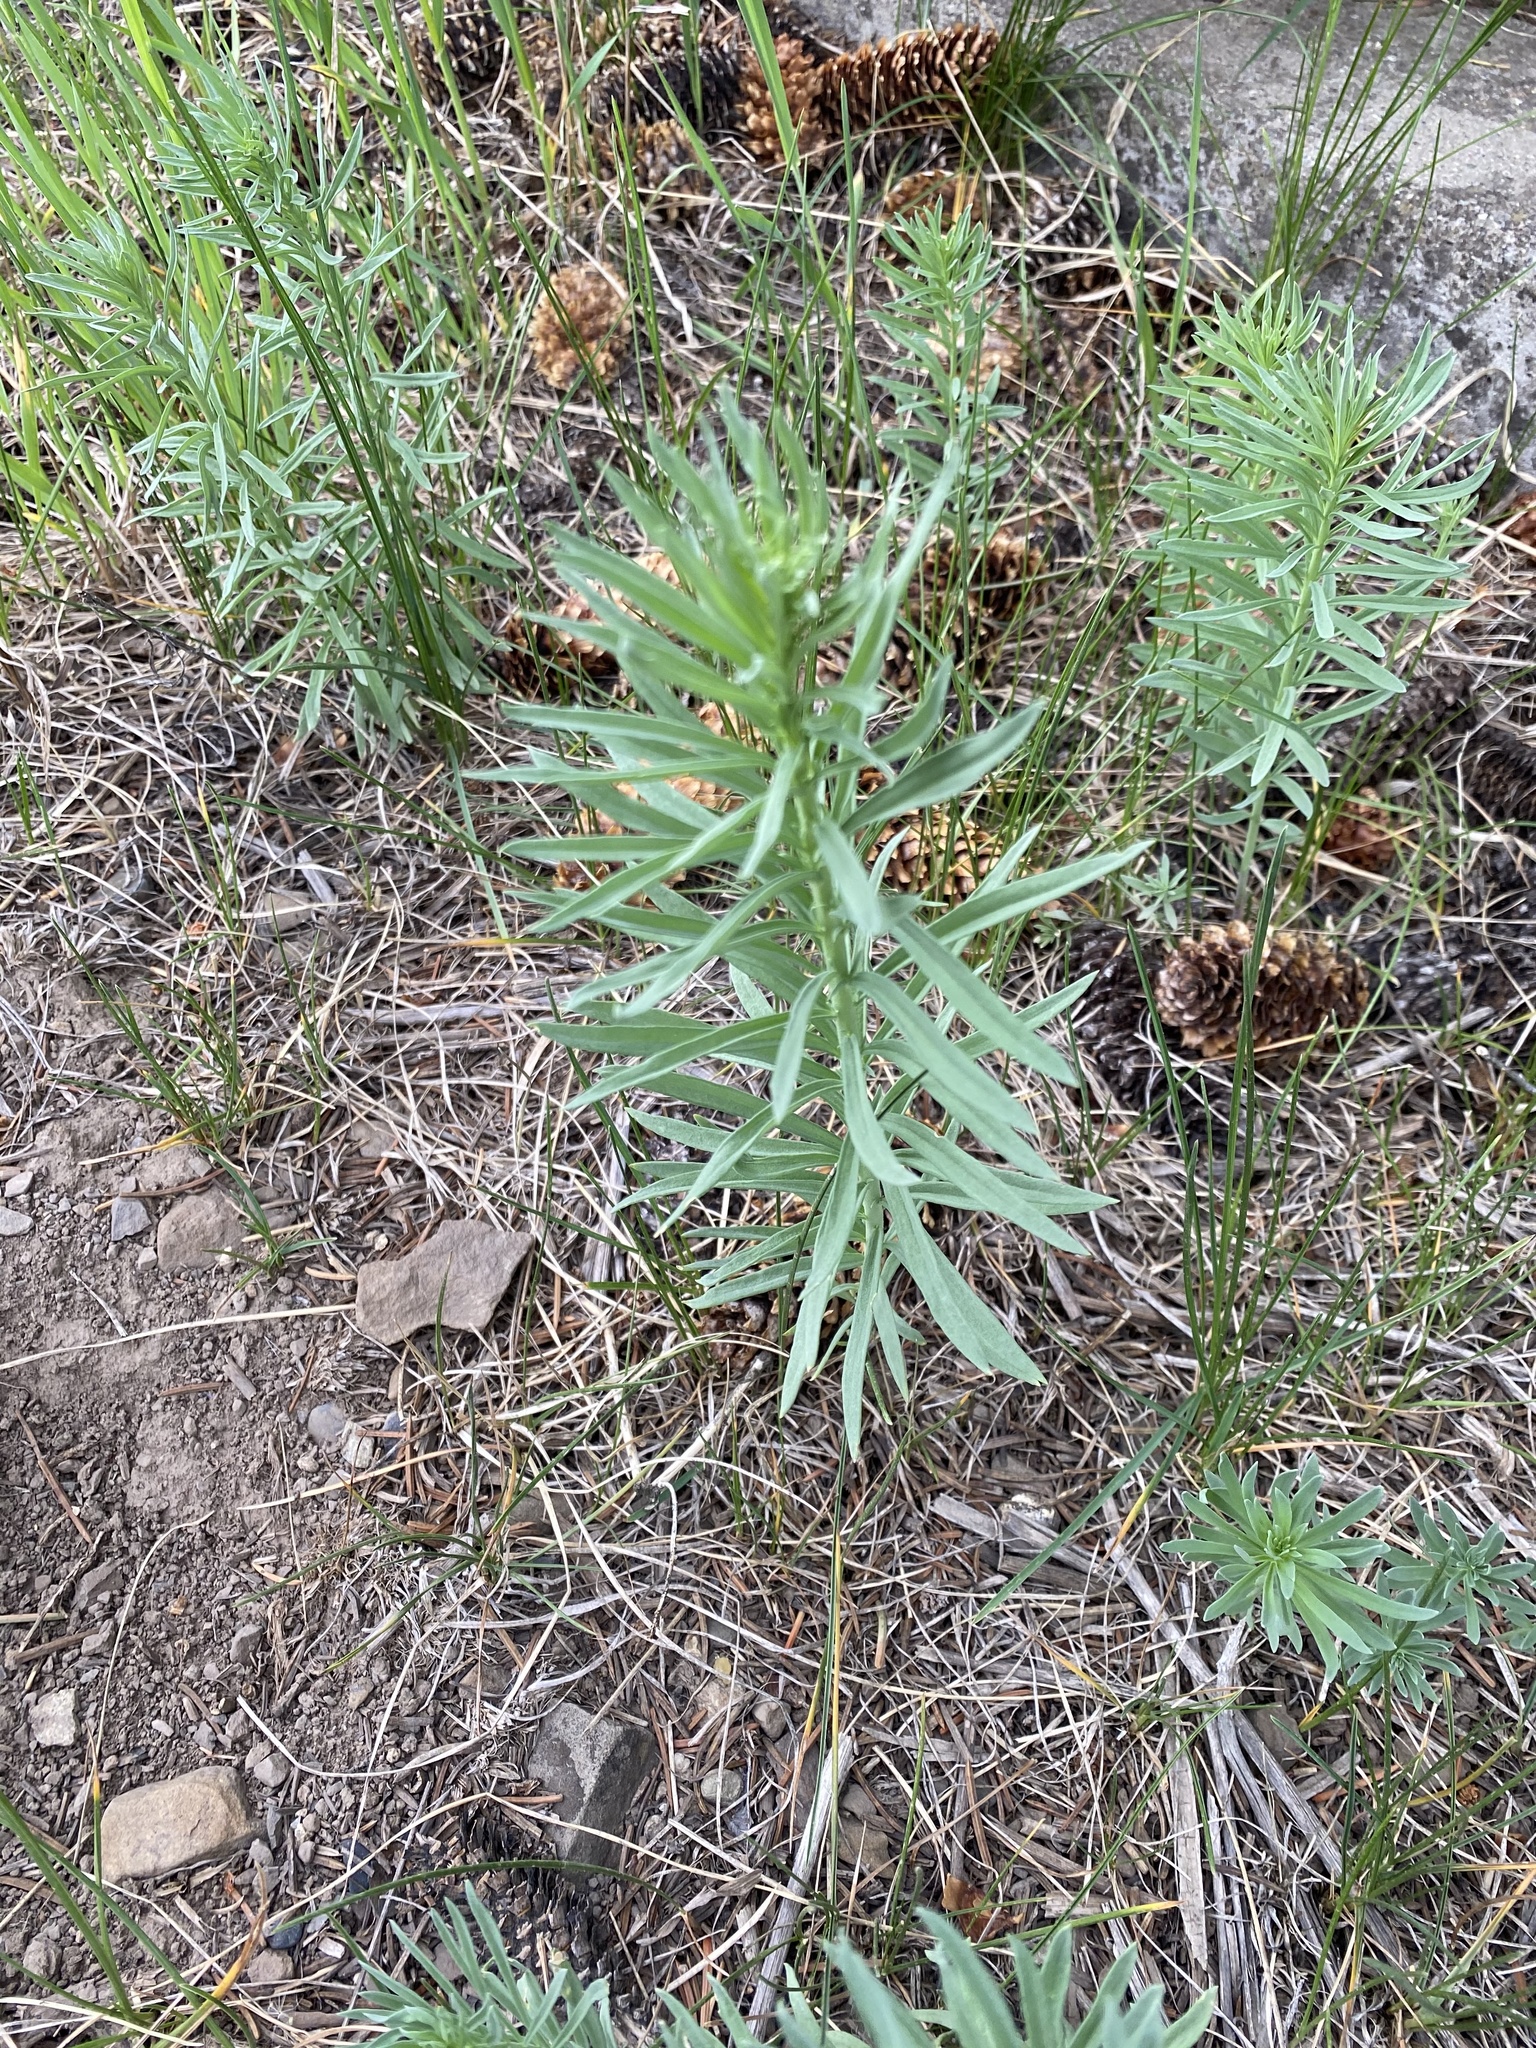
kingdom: Plantae
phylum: Tracheophyta
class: Magnoliopsida
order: Lamiales
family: Plantaginaceae
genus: Linaria
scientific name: Linaria vulgaris
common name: Butter and eggs
